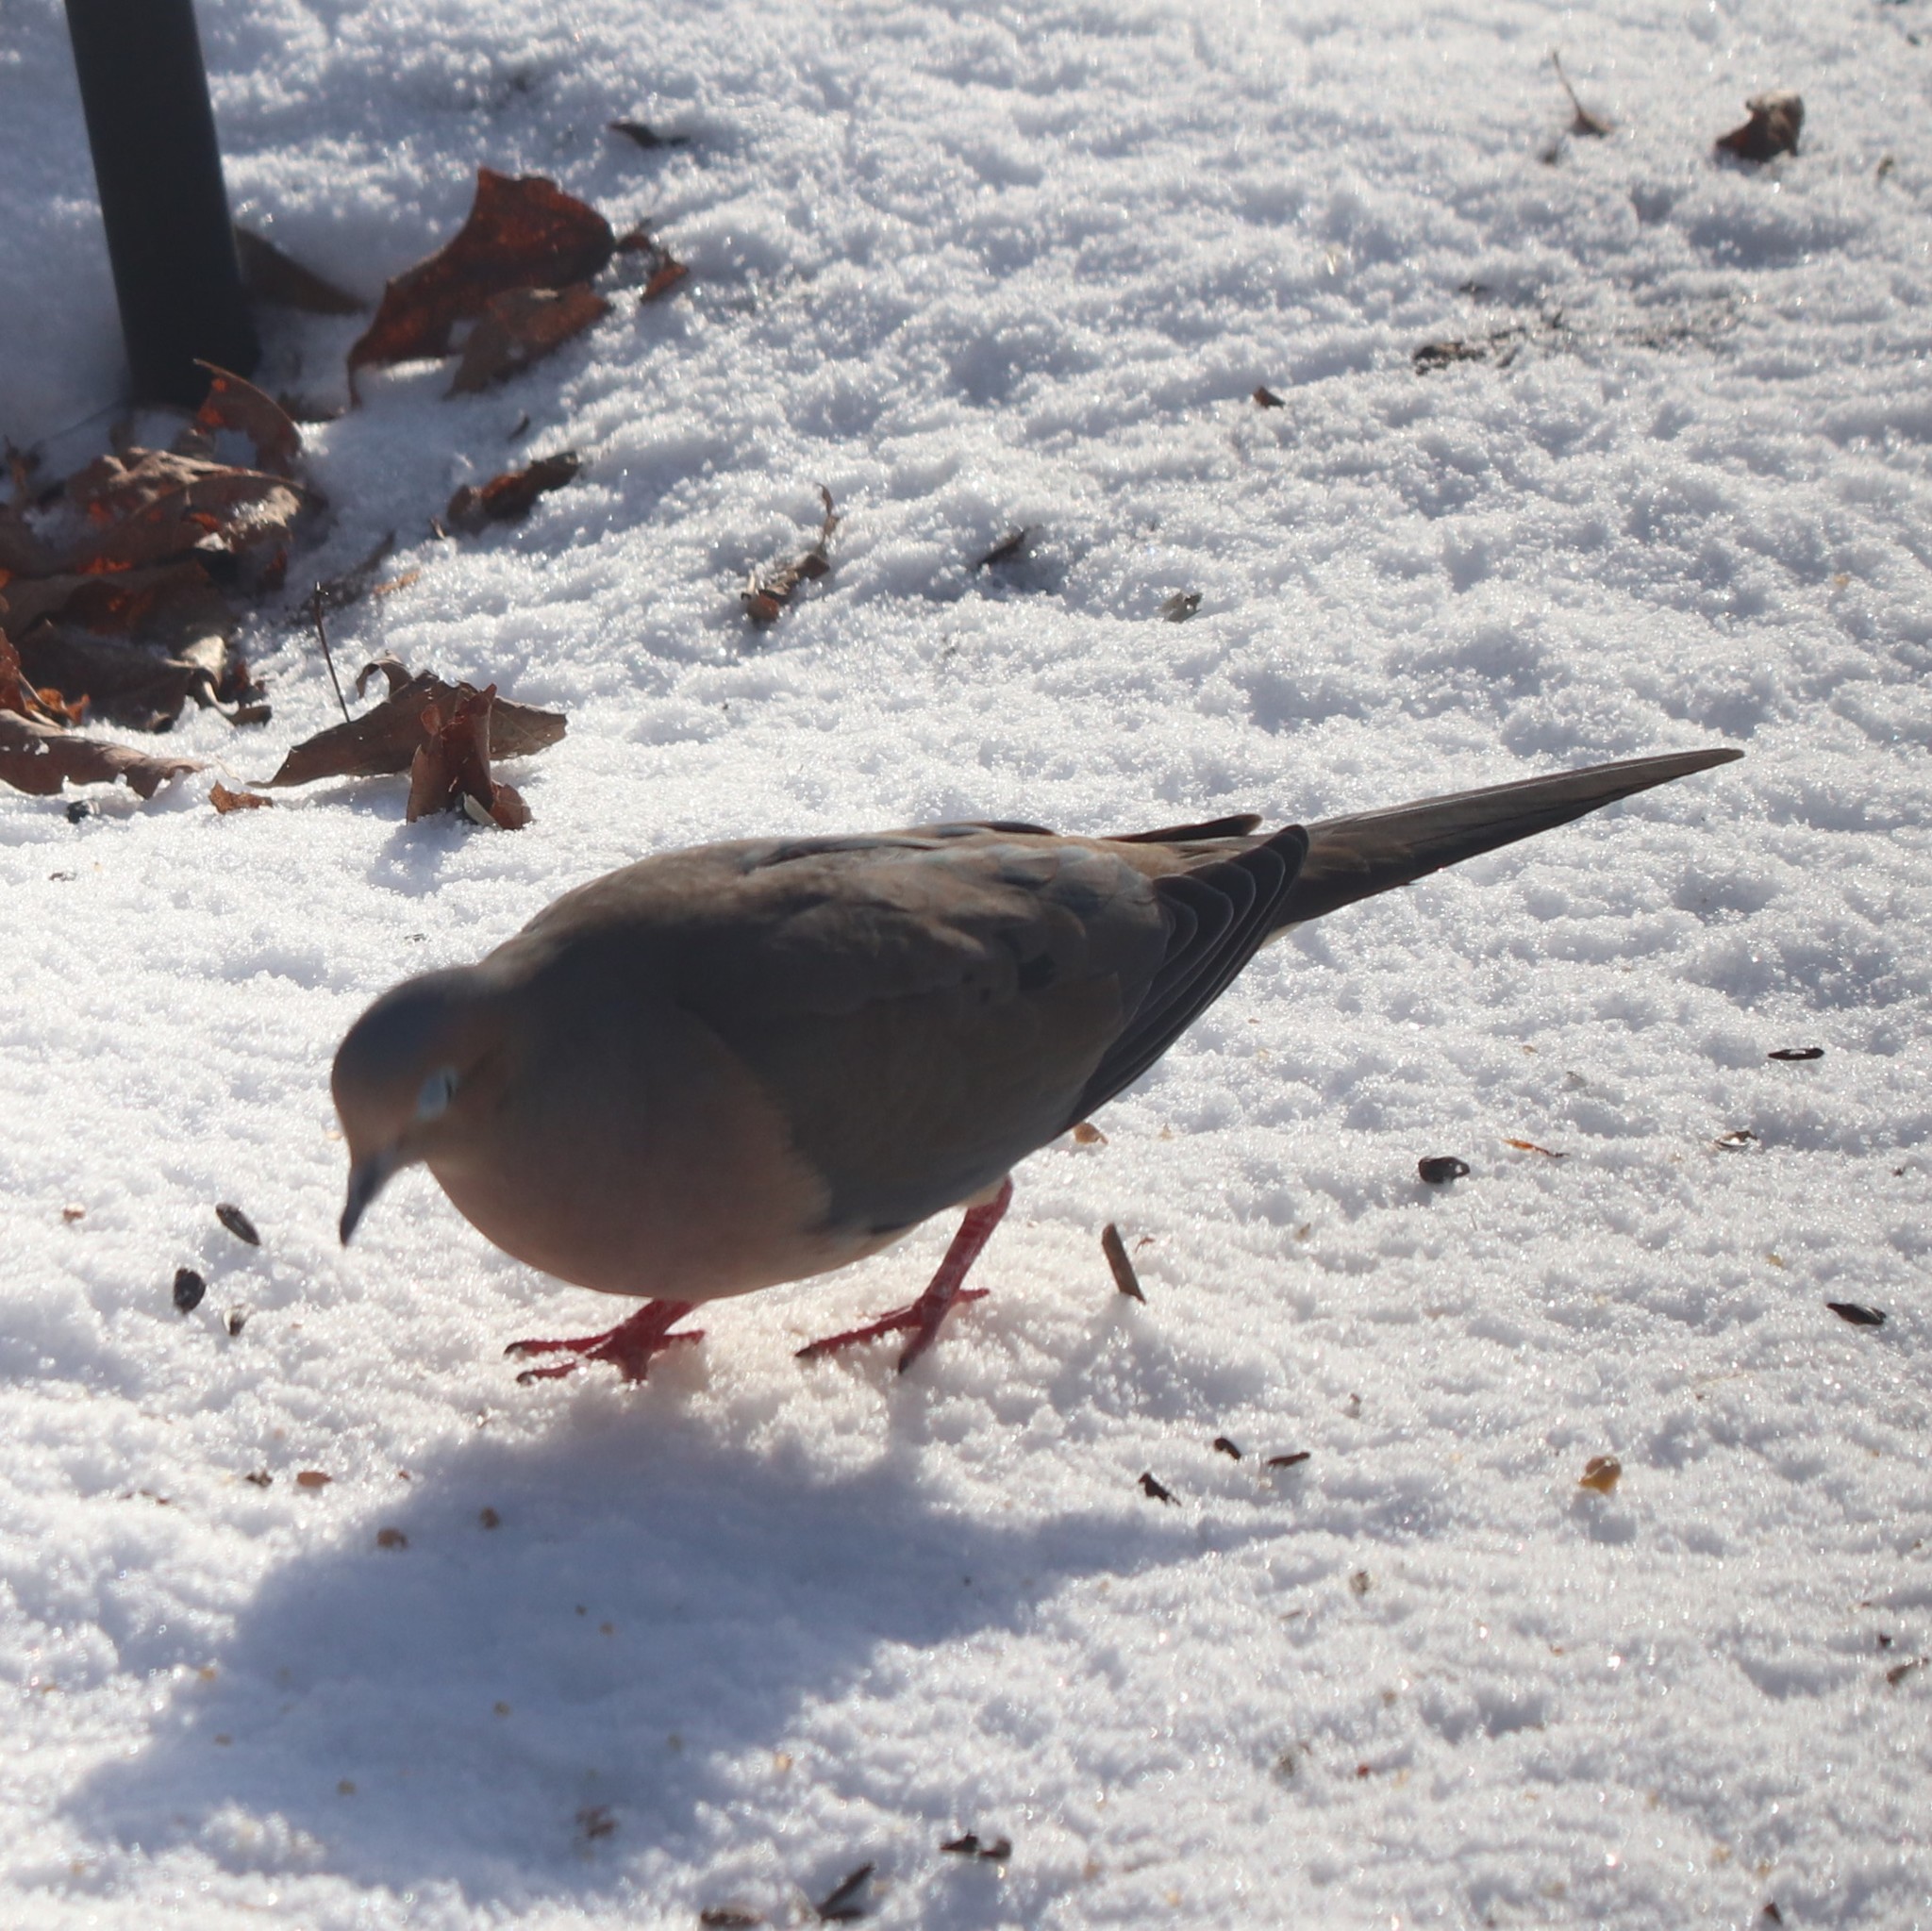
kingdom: Animalia
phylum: Chordata
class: Aves
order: Columbiformes
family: Columbidae
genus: Zenaida
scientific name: Zenaida macroura
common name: Mourning dove
